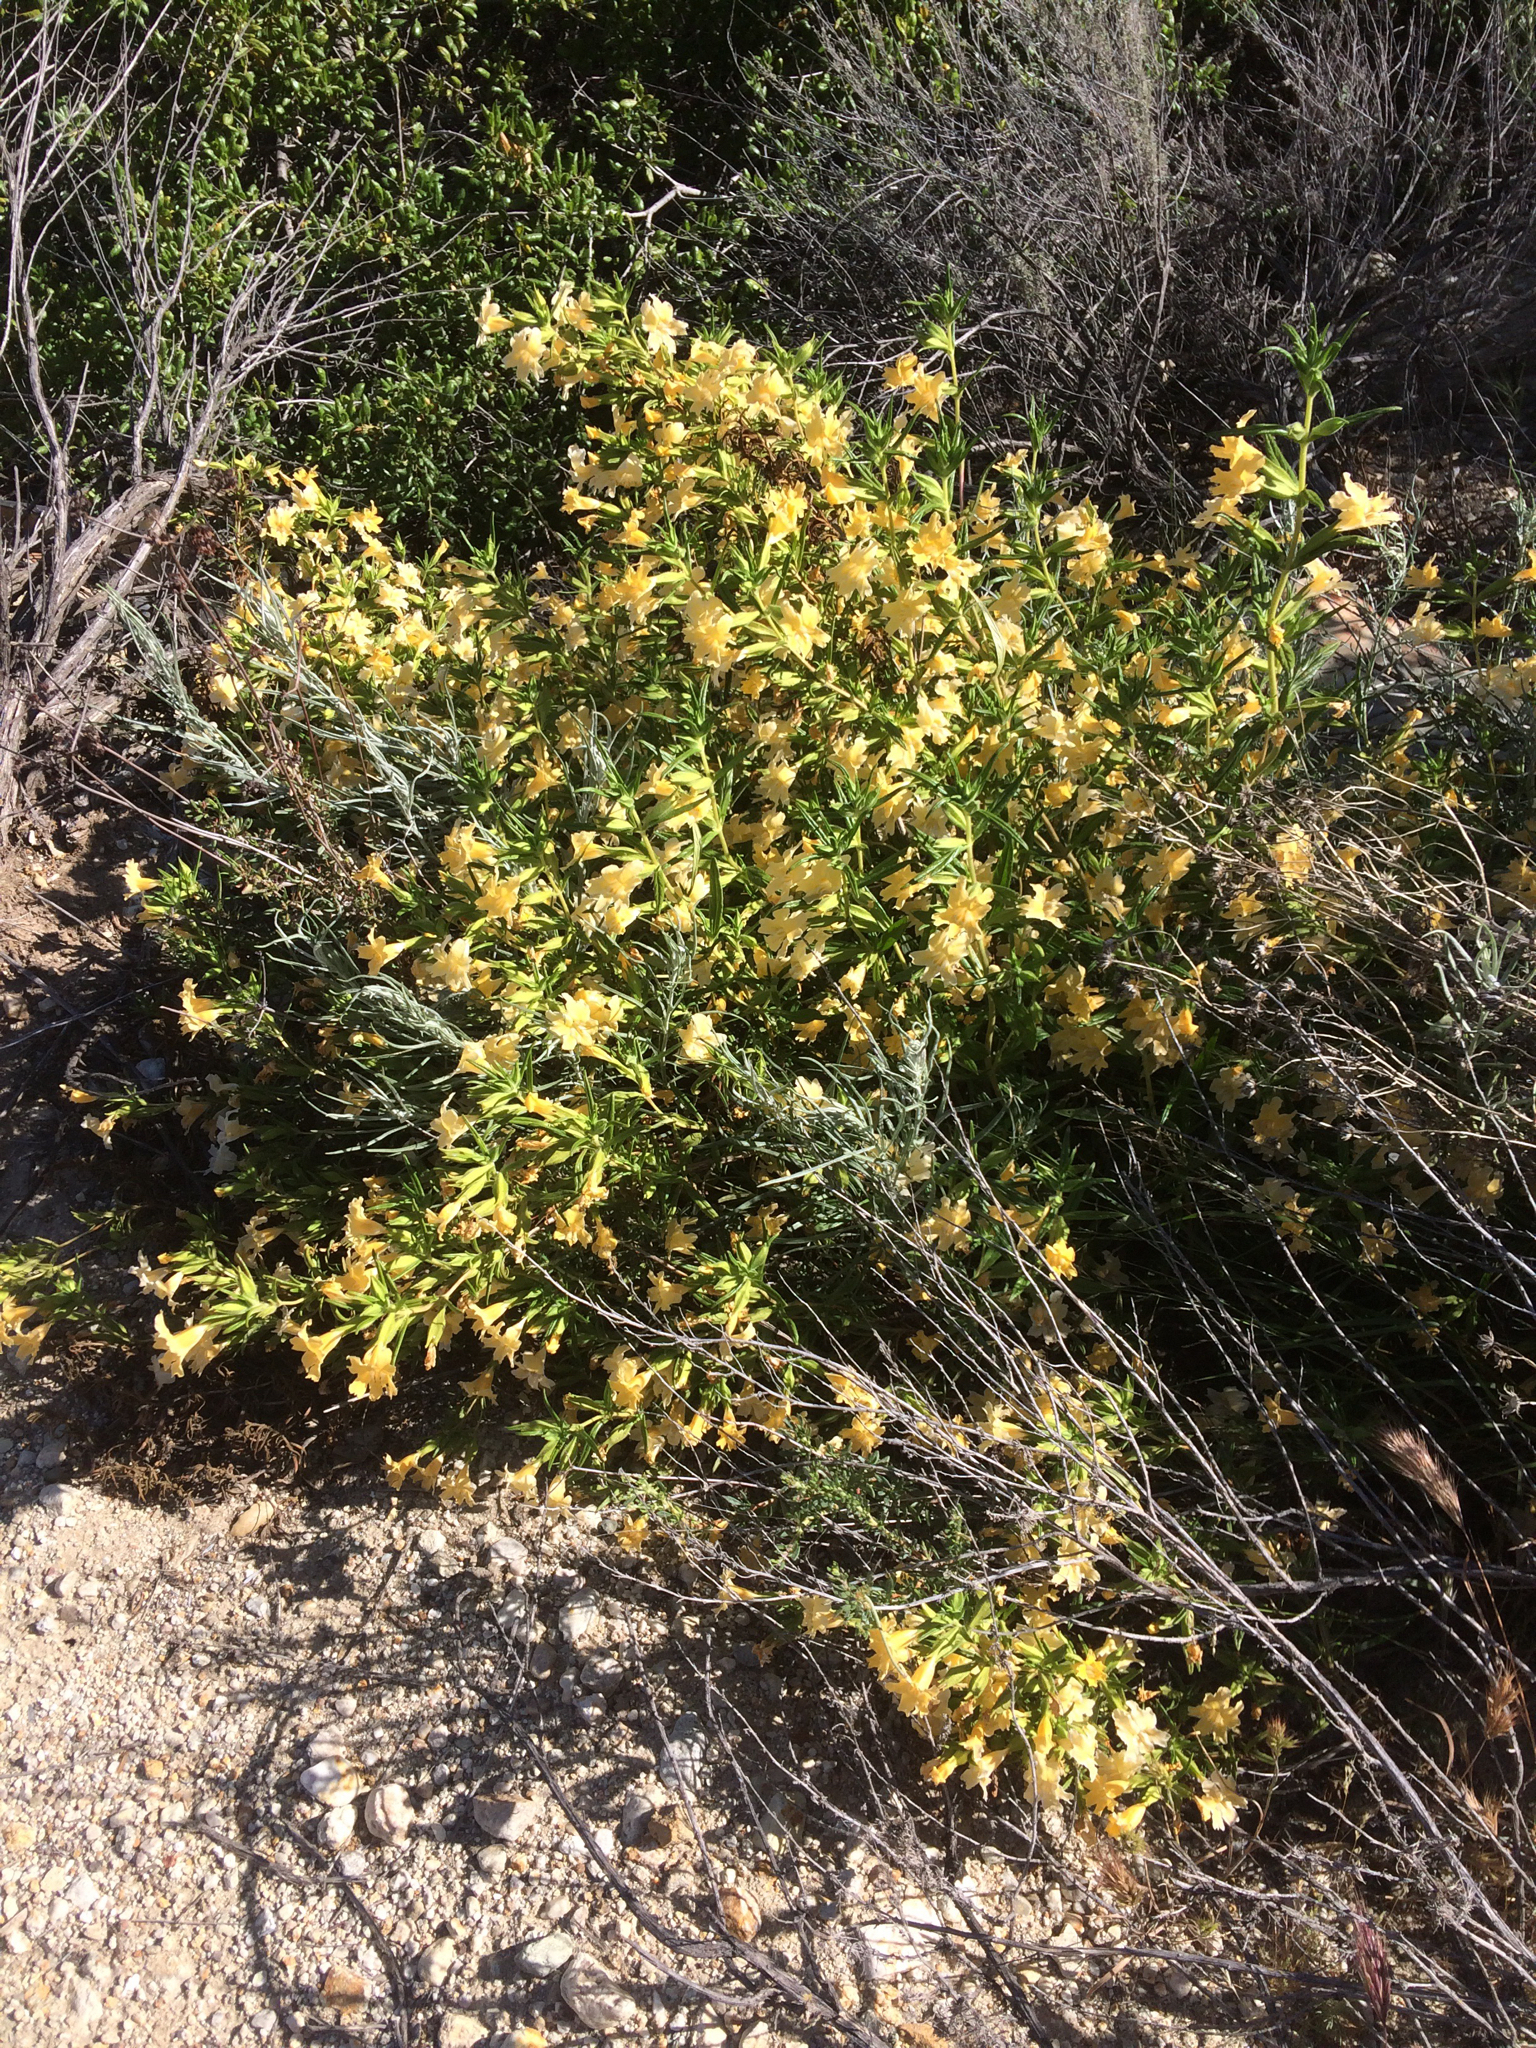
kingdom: Plantae
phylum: Tracheophyta
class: Magnoliopsida
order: Lamiales
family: Phrymaceae
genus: Diplacus
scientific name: Diplacus longiflorus
